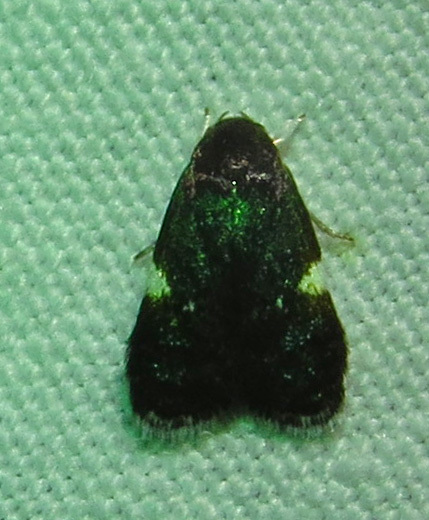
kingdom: Animalia
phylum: Arthropoda
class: Insecta
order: Lepidoptera
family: Depressariidae
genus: Menesta
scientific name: Menesta melanella
